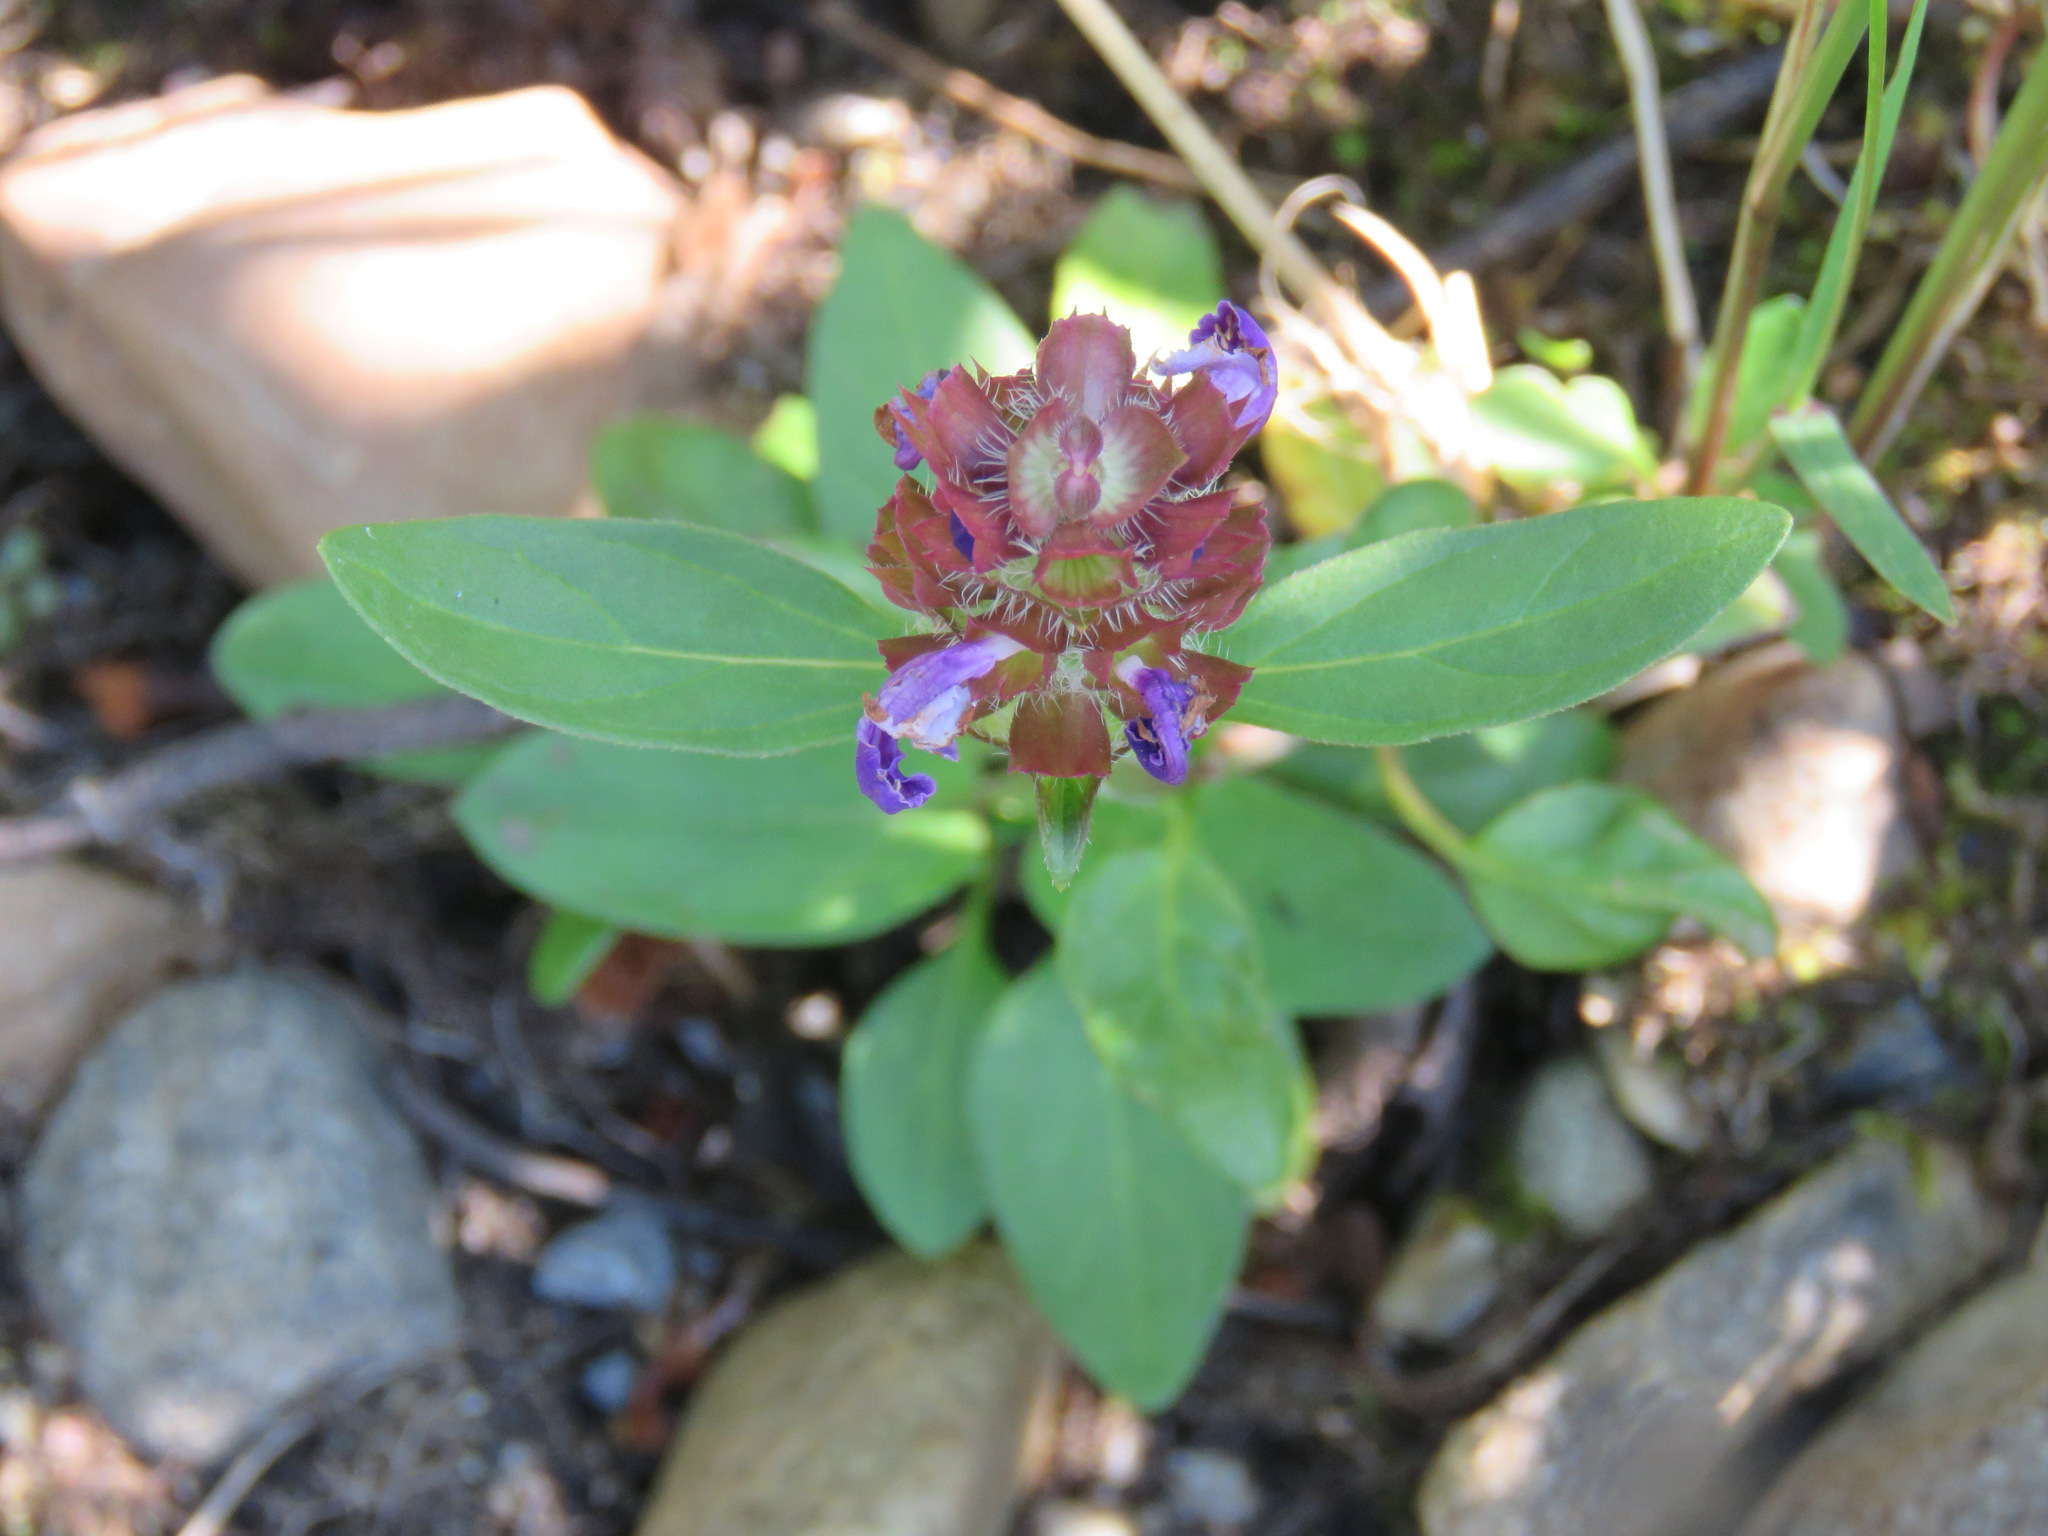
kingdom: Plantae
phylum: Tracheophyta
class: Magnoliopsida
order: Lamiales
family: Lamiaceae
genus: Prunella
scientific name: Prunella vulgaris
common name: Heal-all
